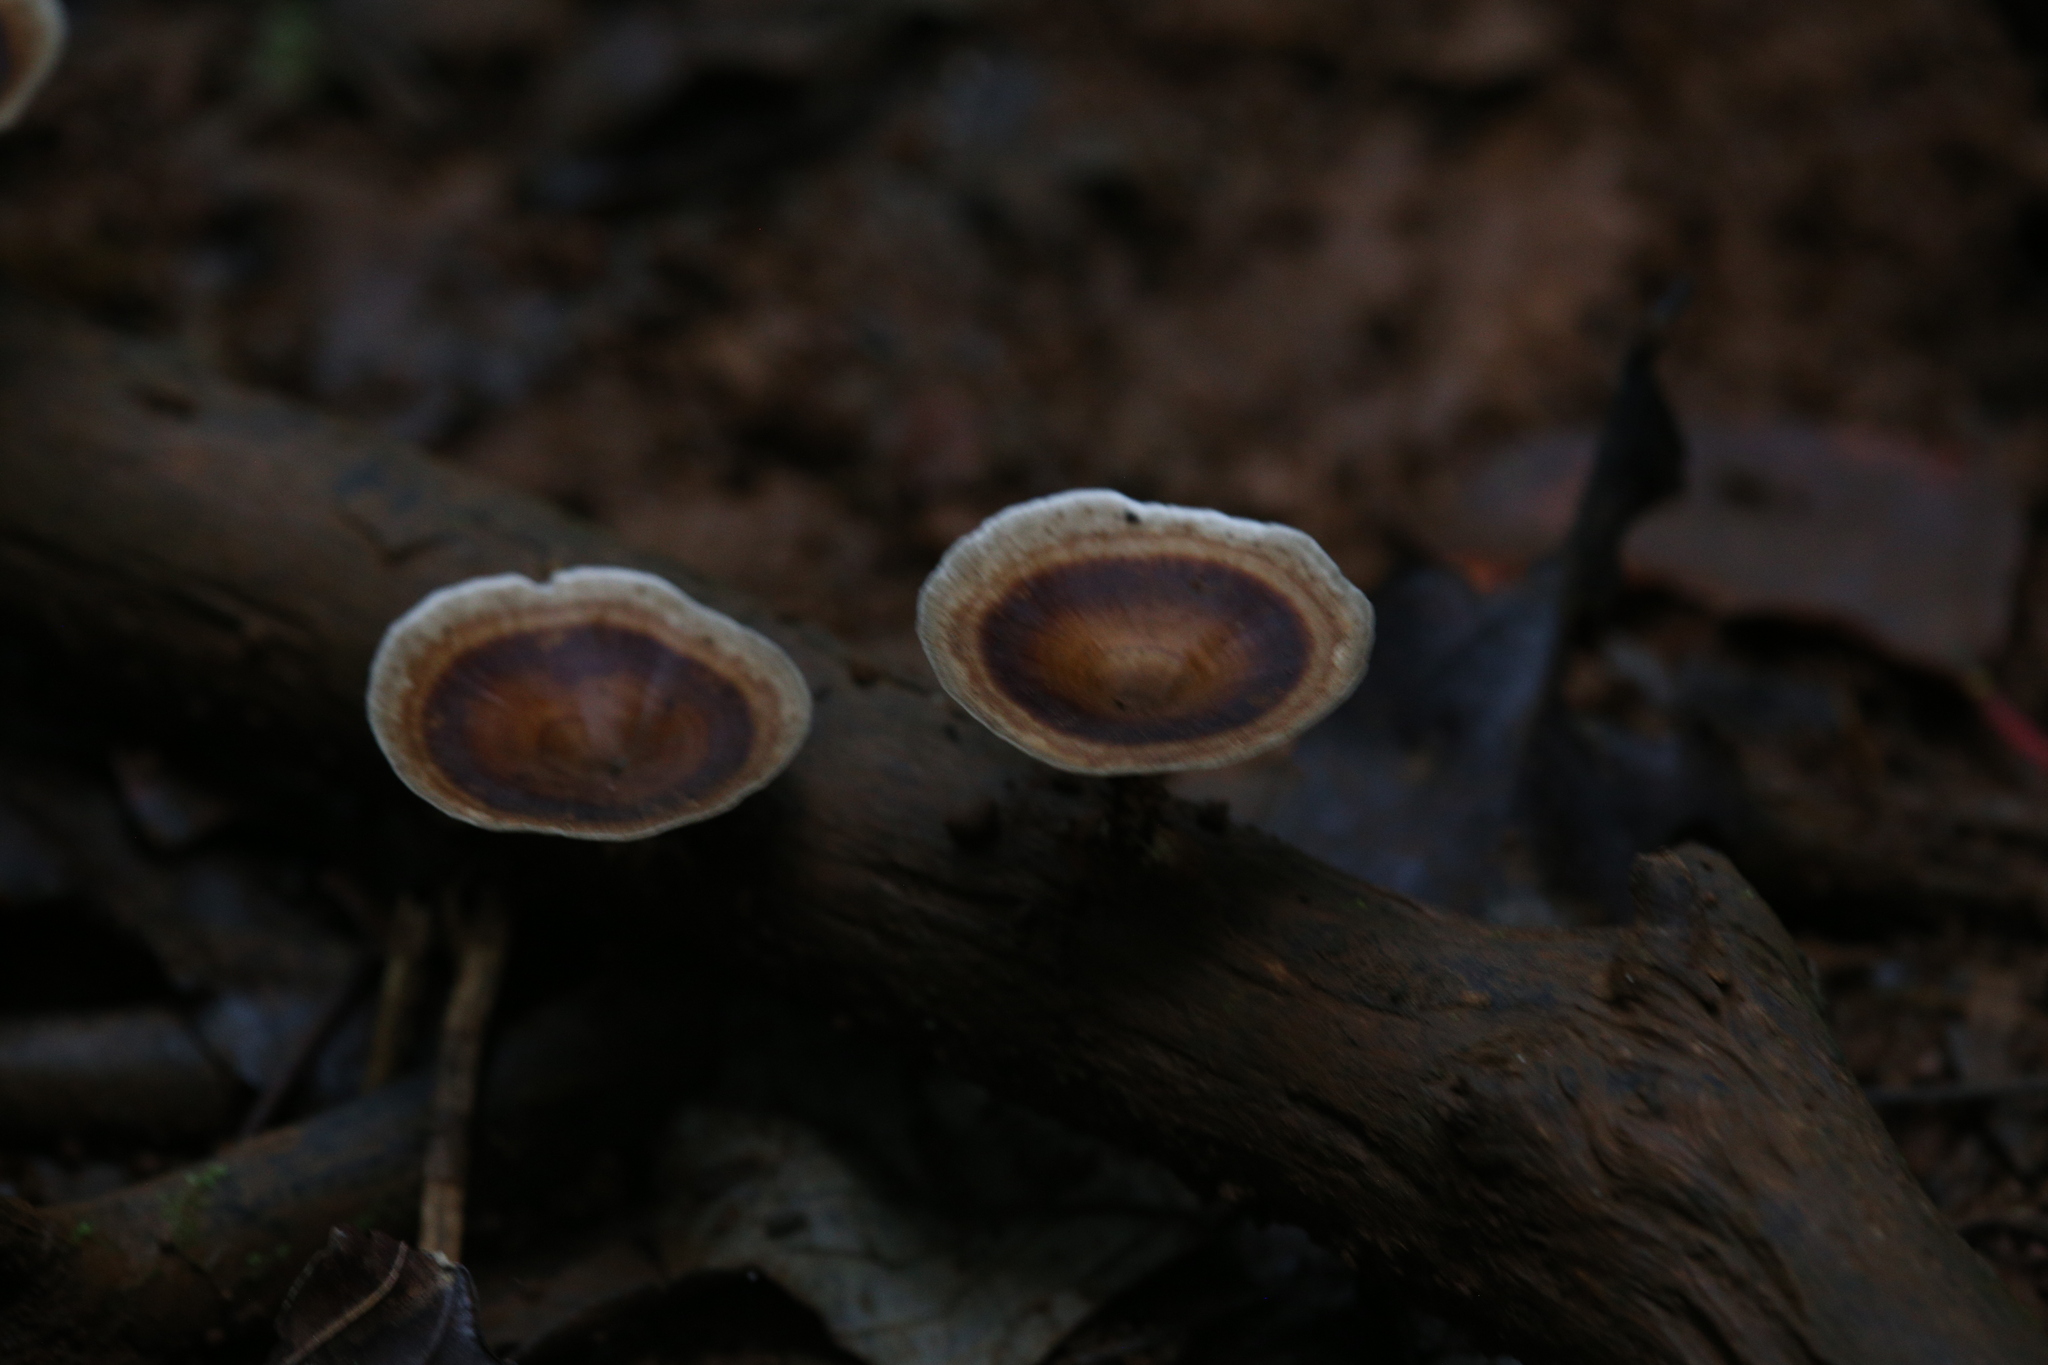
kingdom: Fungi
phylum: Basidiomycota
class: Agaricomycetes
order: Polyporales
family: Polyporaceae
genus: Microporus
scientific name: Microporus xanthopus
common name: Yellow-stemmed micropore
